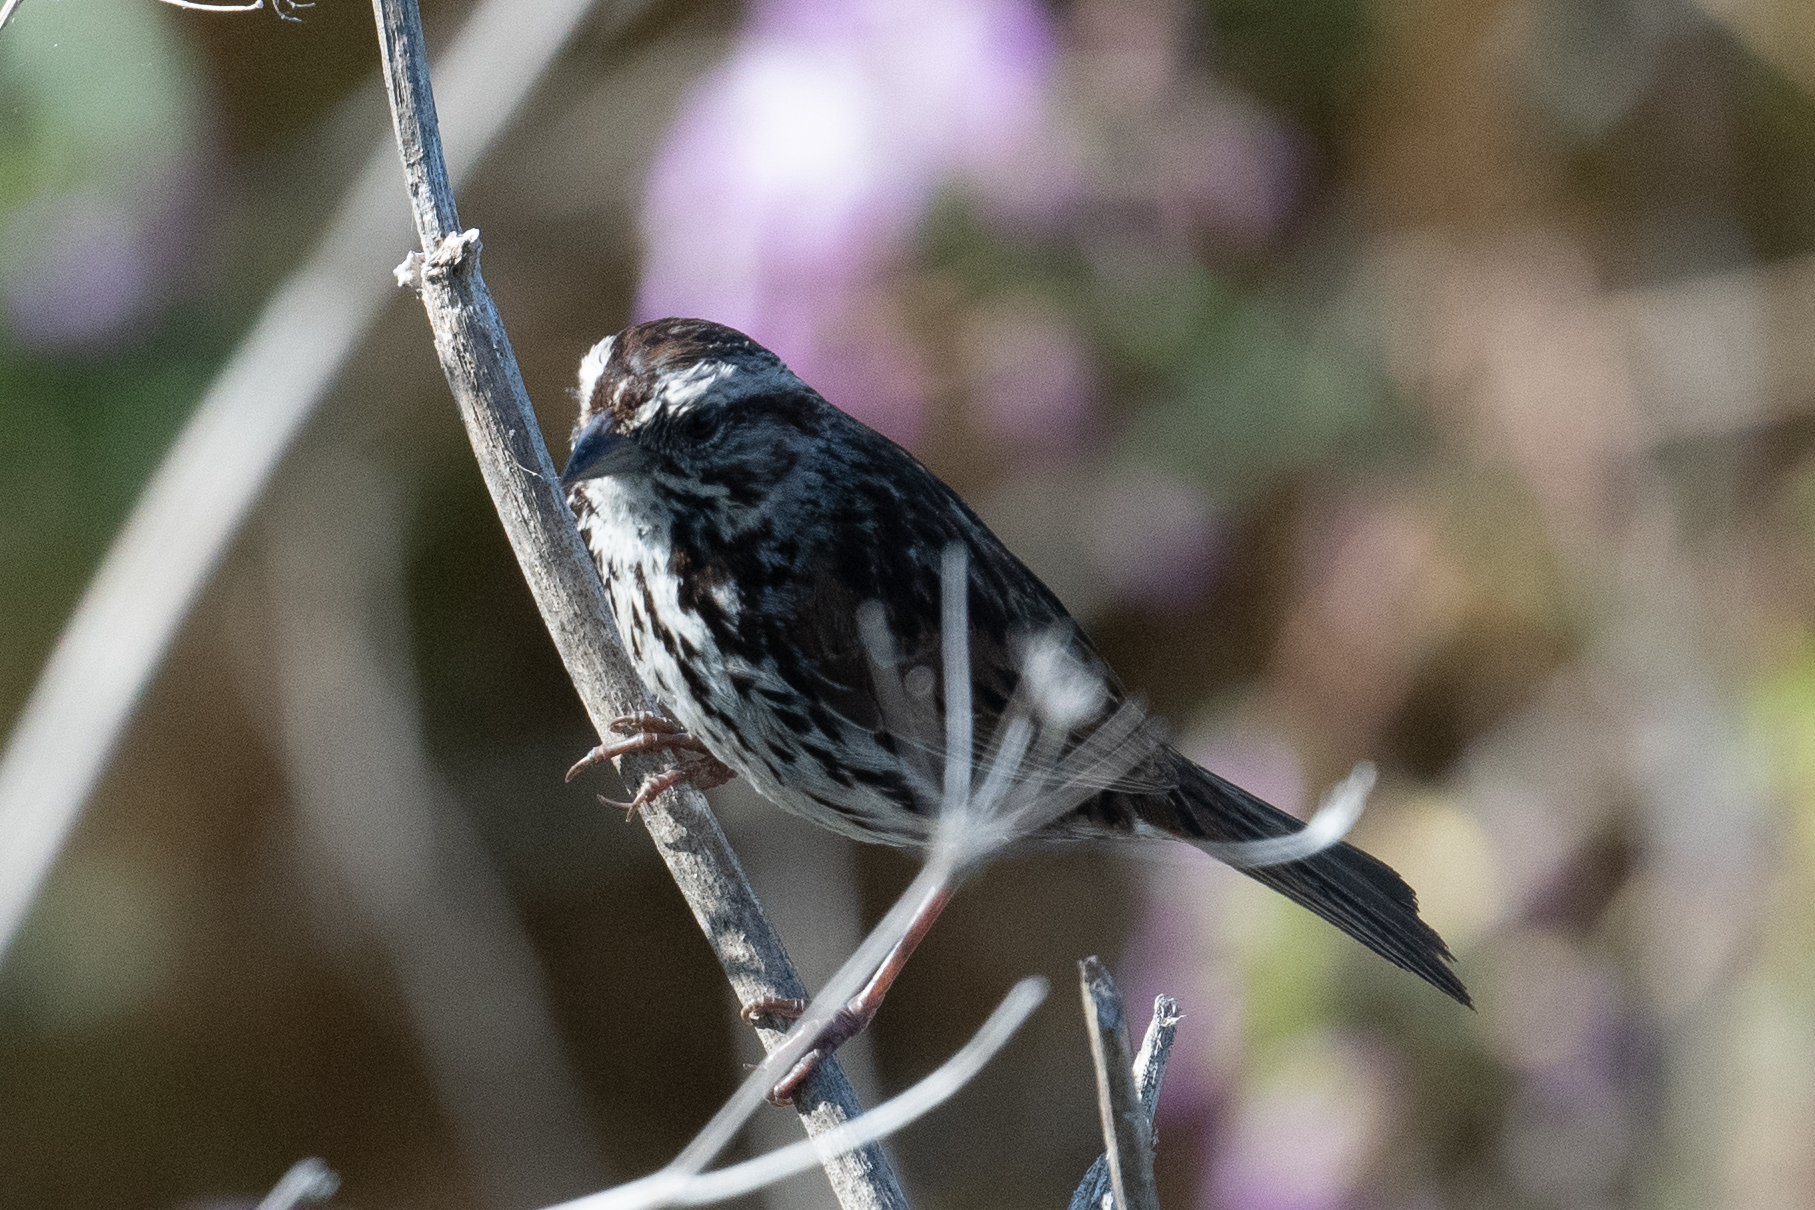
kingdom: Animalia
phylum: Chordata
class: Aves
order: Passeriformes
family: Passerellidae
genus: Melospiza
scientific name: Melospiza melodia
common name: Song sparrow
